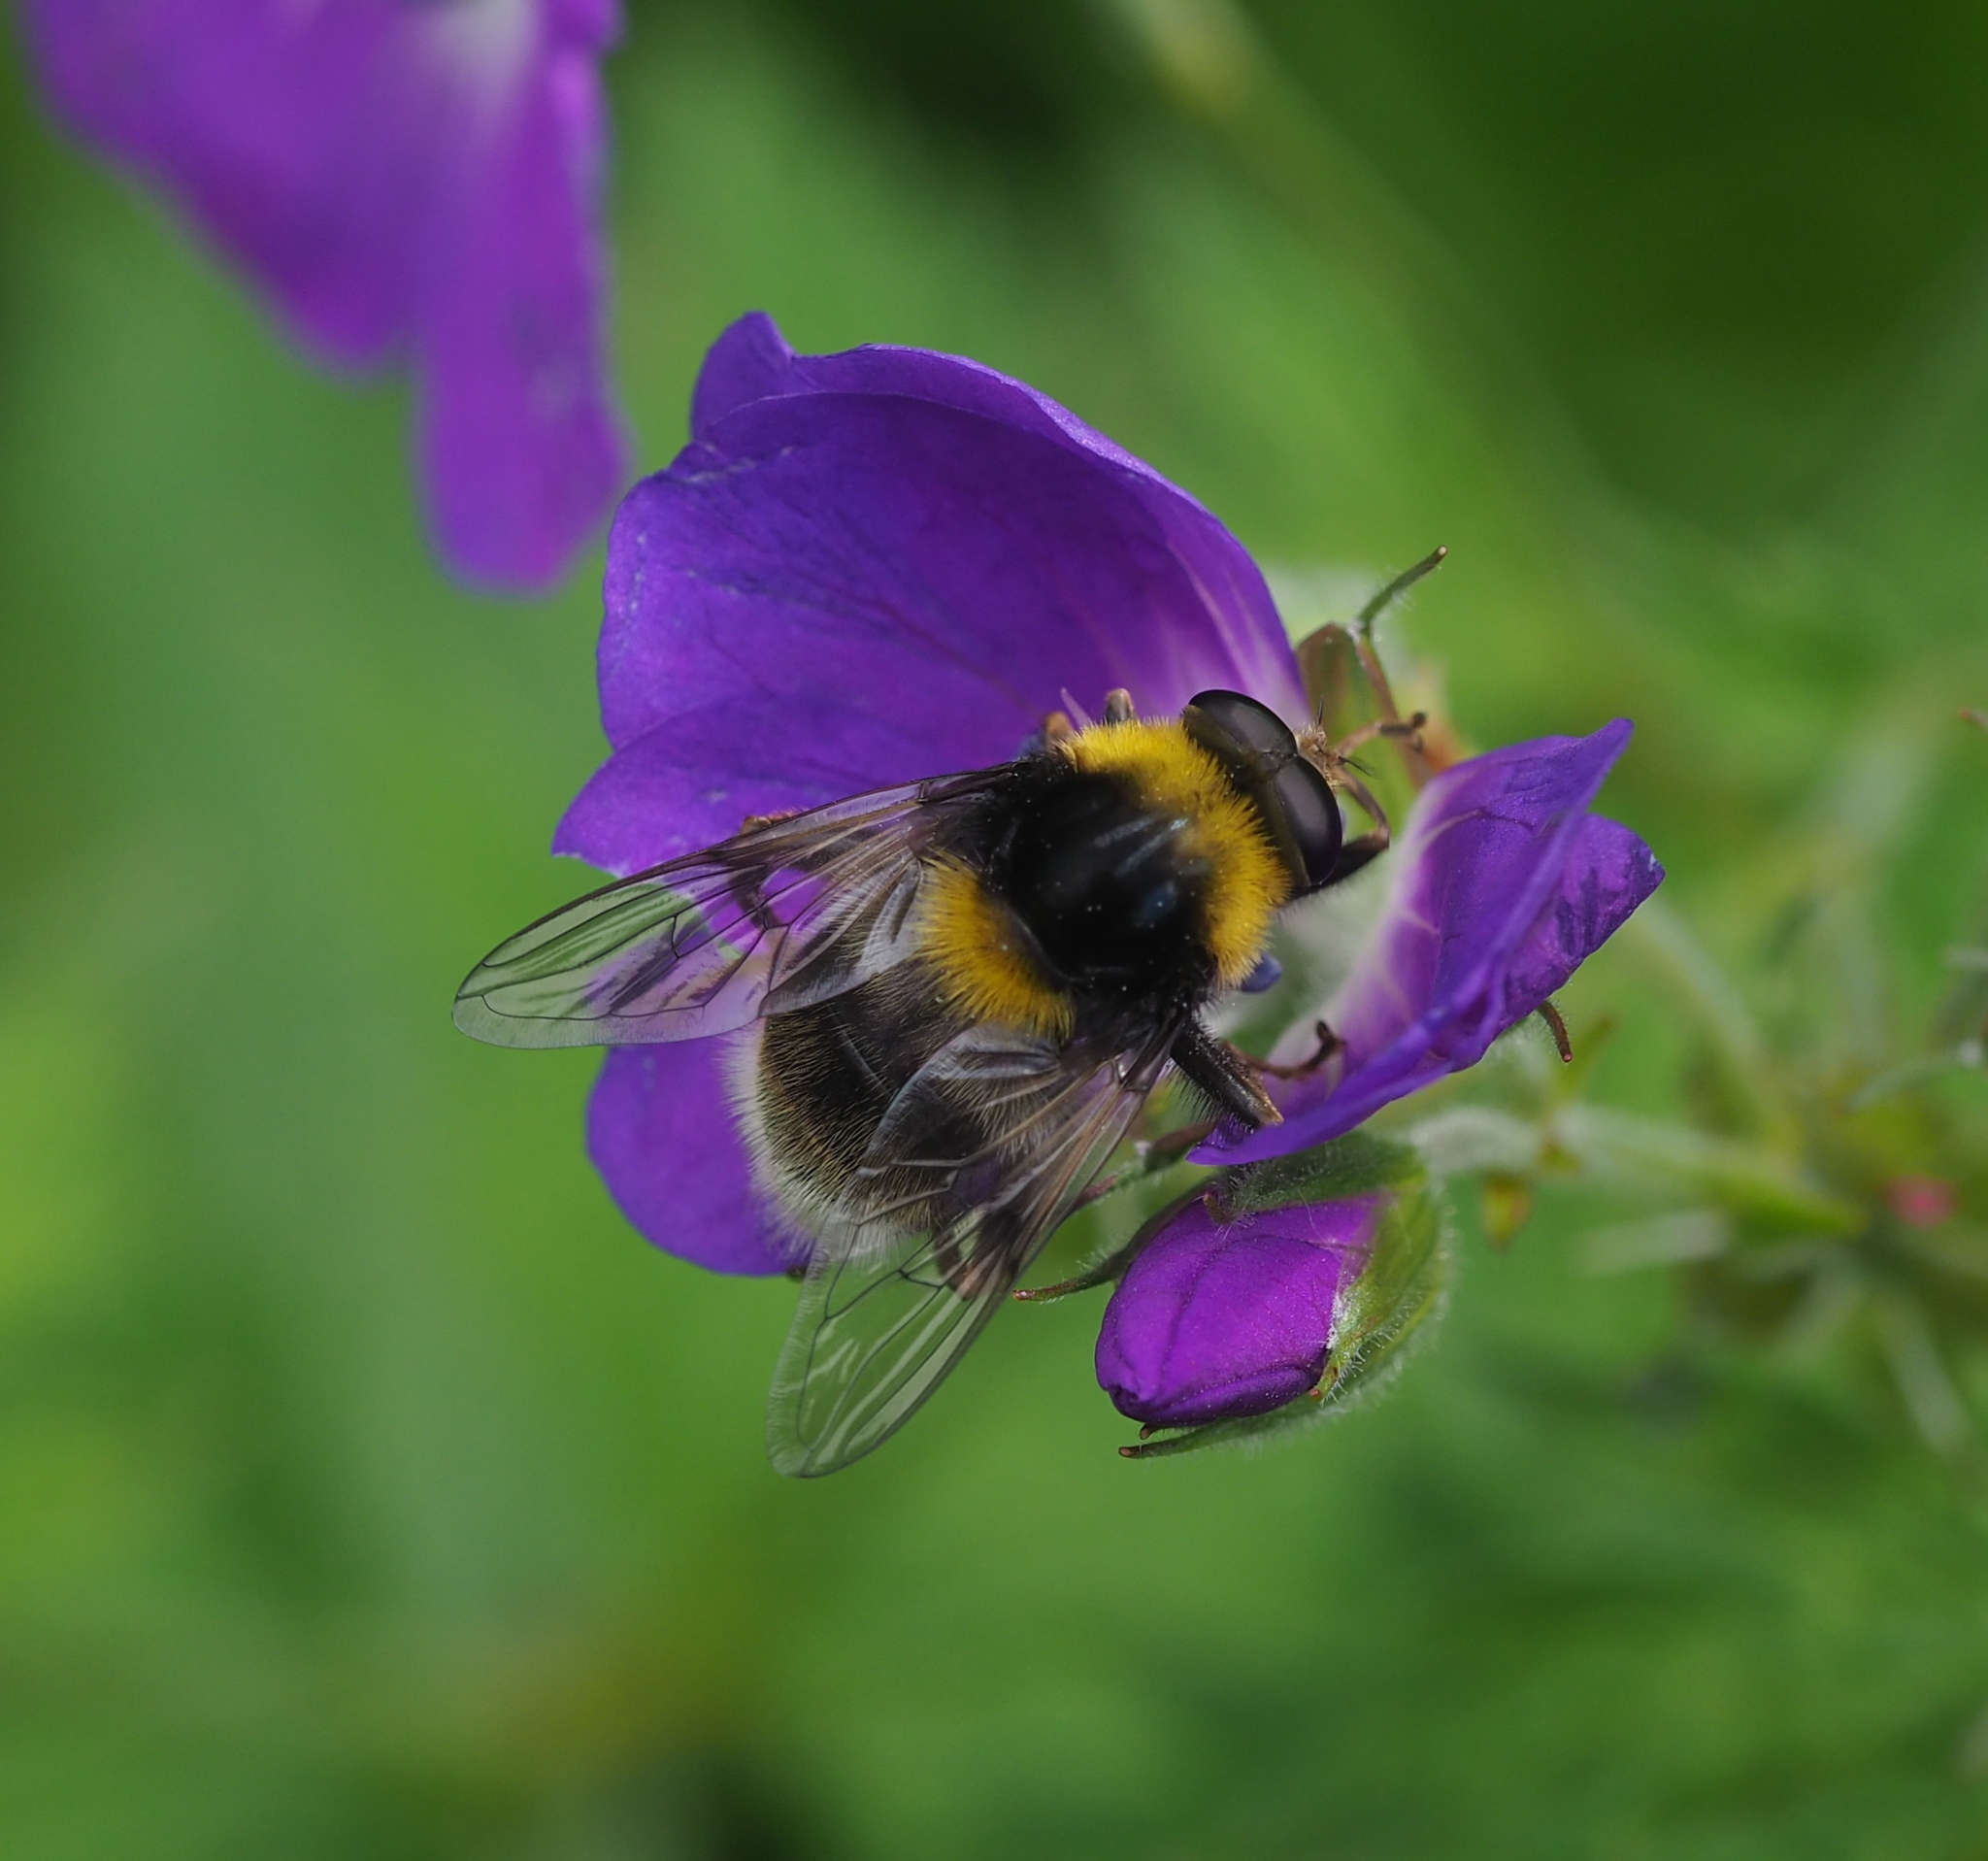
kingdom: Animalia
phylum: Arthropoda
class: Insecta
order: Diptera
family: Syrphidae
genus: Sericomyia
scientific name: Sericomyia bombiformis
